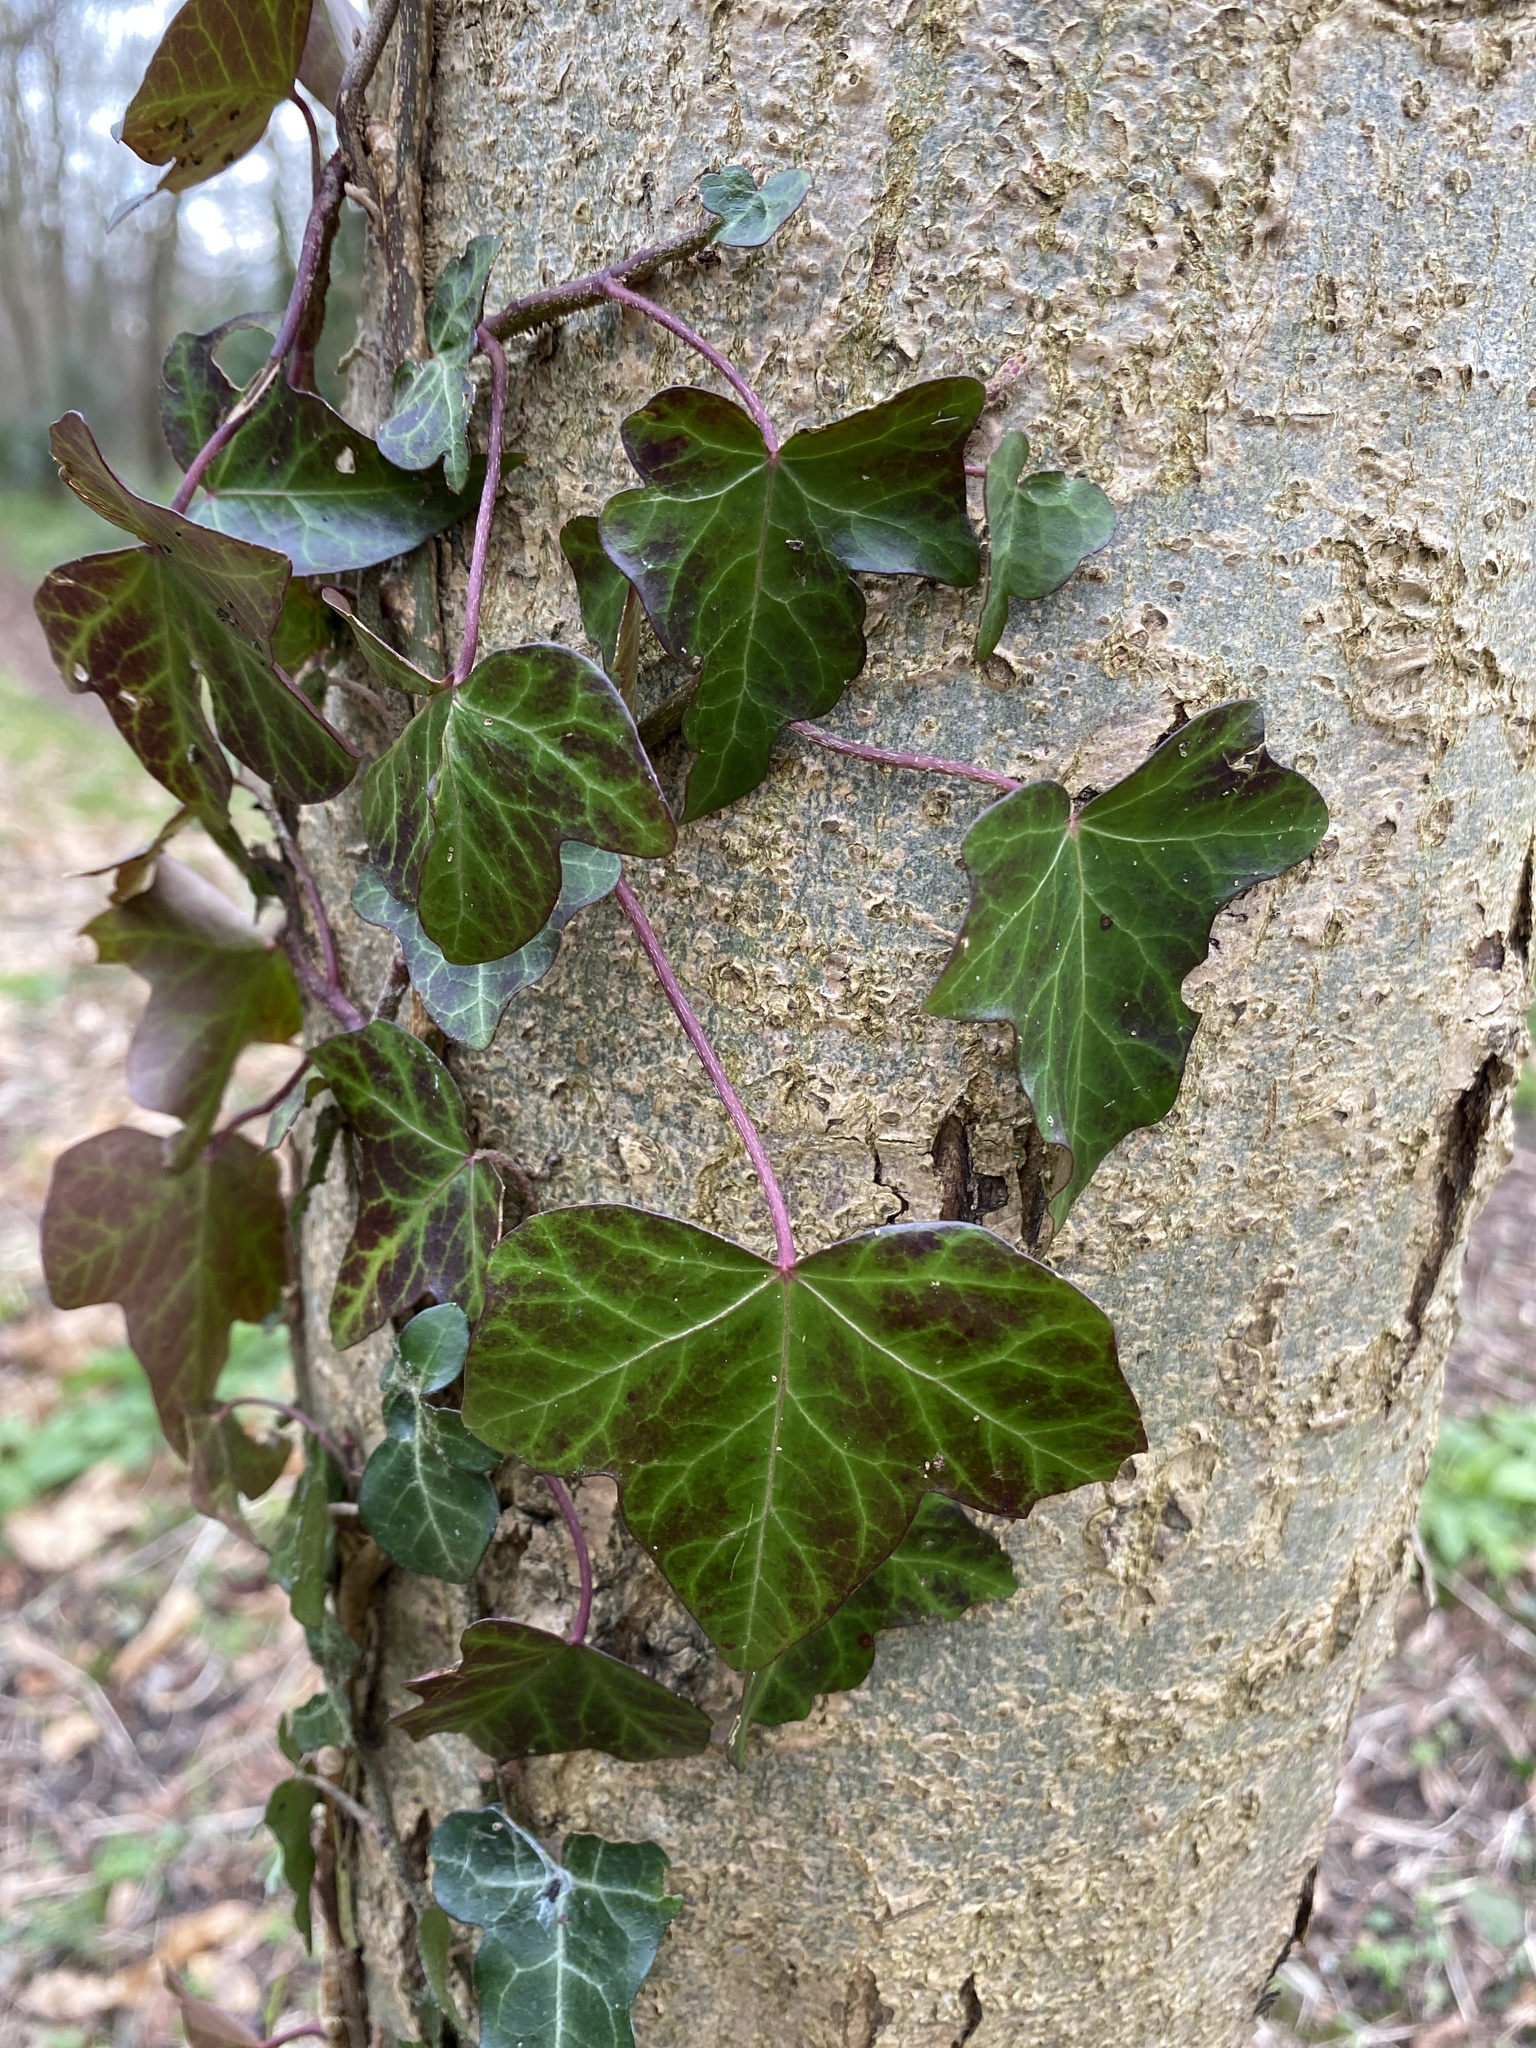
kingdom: Plantae
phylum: Tracheophyta
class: Magnoliopsida
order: Apiales
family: Araliaceae
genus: Hedera
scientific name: Hedera helix
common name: Ivy
